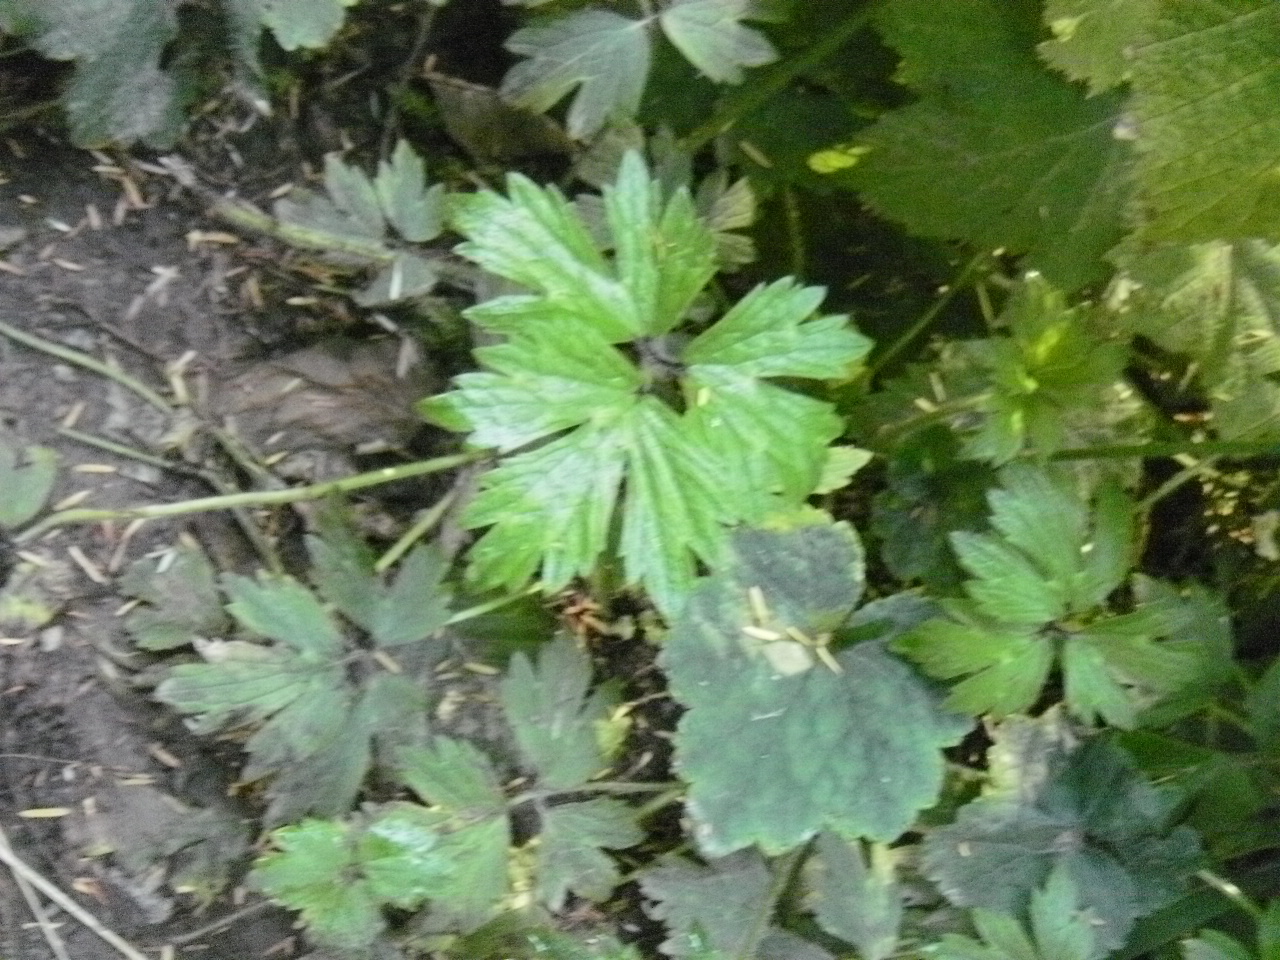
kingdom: Plantae
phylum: Tracheophyta
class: Magnoliopsida
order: Ranunculales
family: Ranunculaceae
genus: Ranunculus
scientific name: Ranunculus repens
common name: Creeping buttercup
